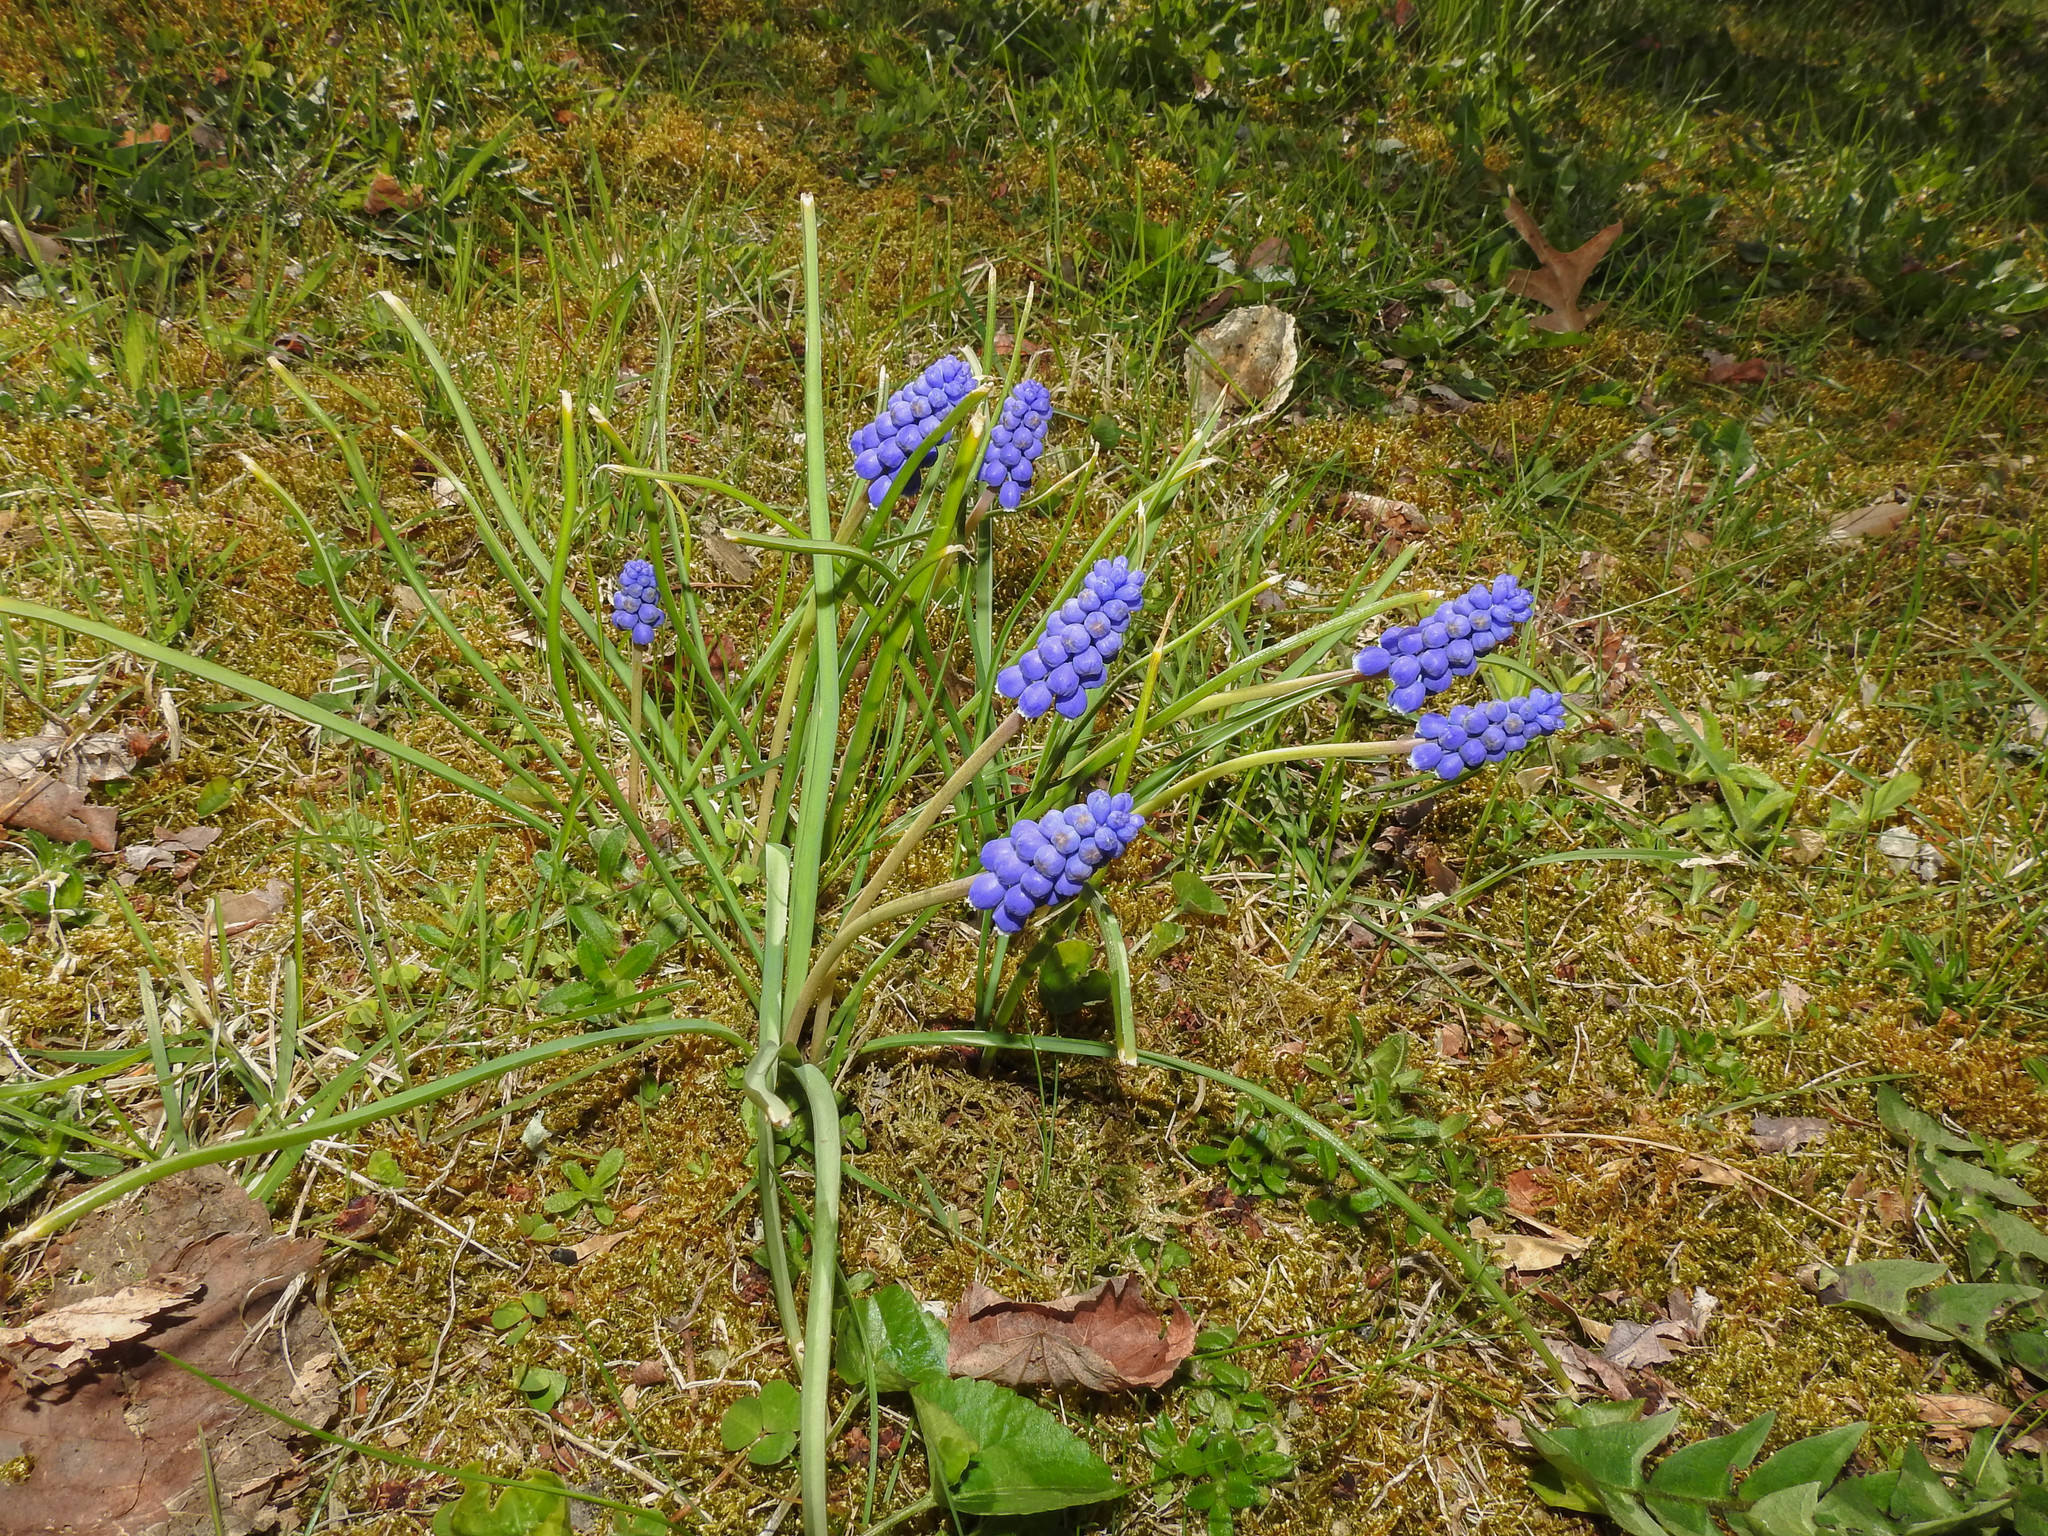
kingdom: Plantae
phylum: Tracheophyta
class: Liliopsida
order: Asparagales
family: Asparagaceae
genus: Muscari
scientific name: Muscari armeniacum
